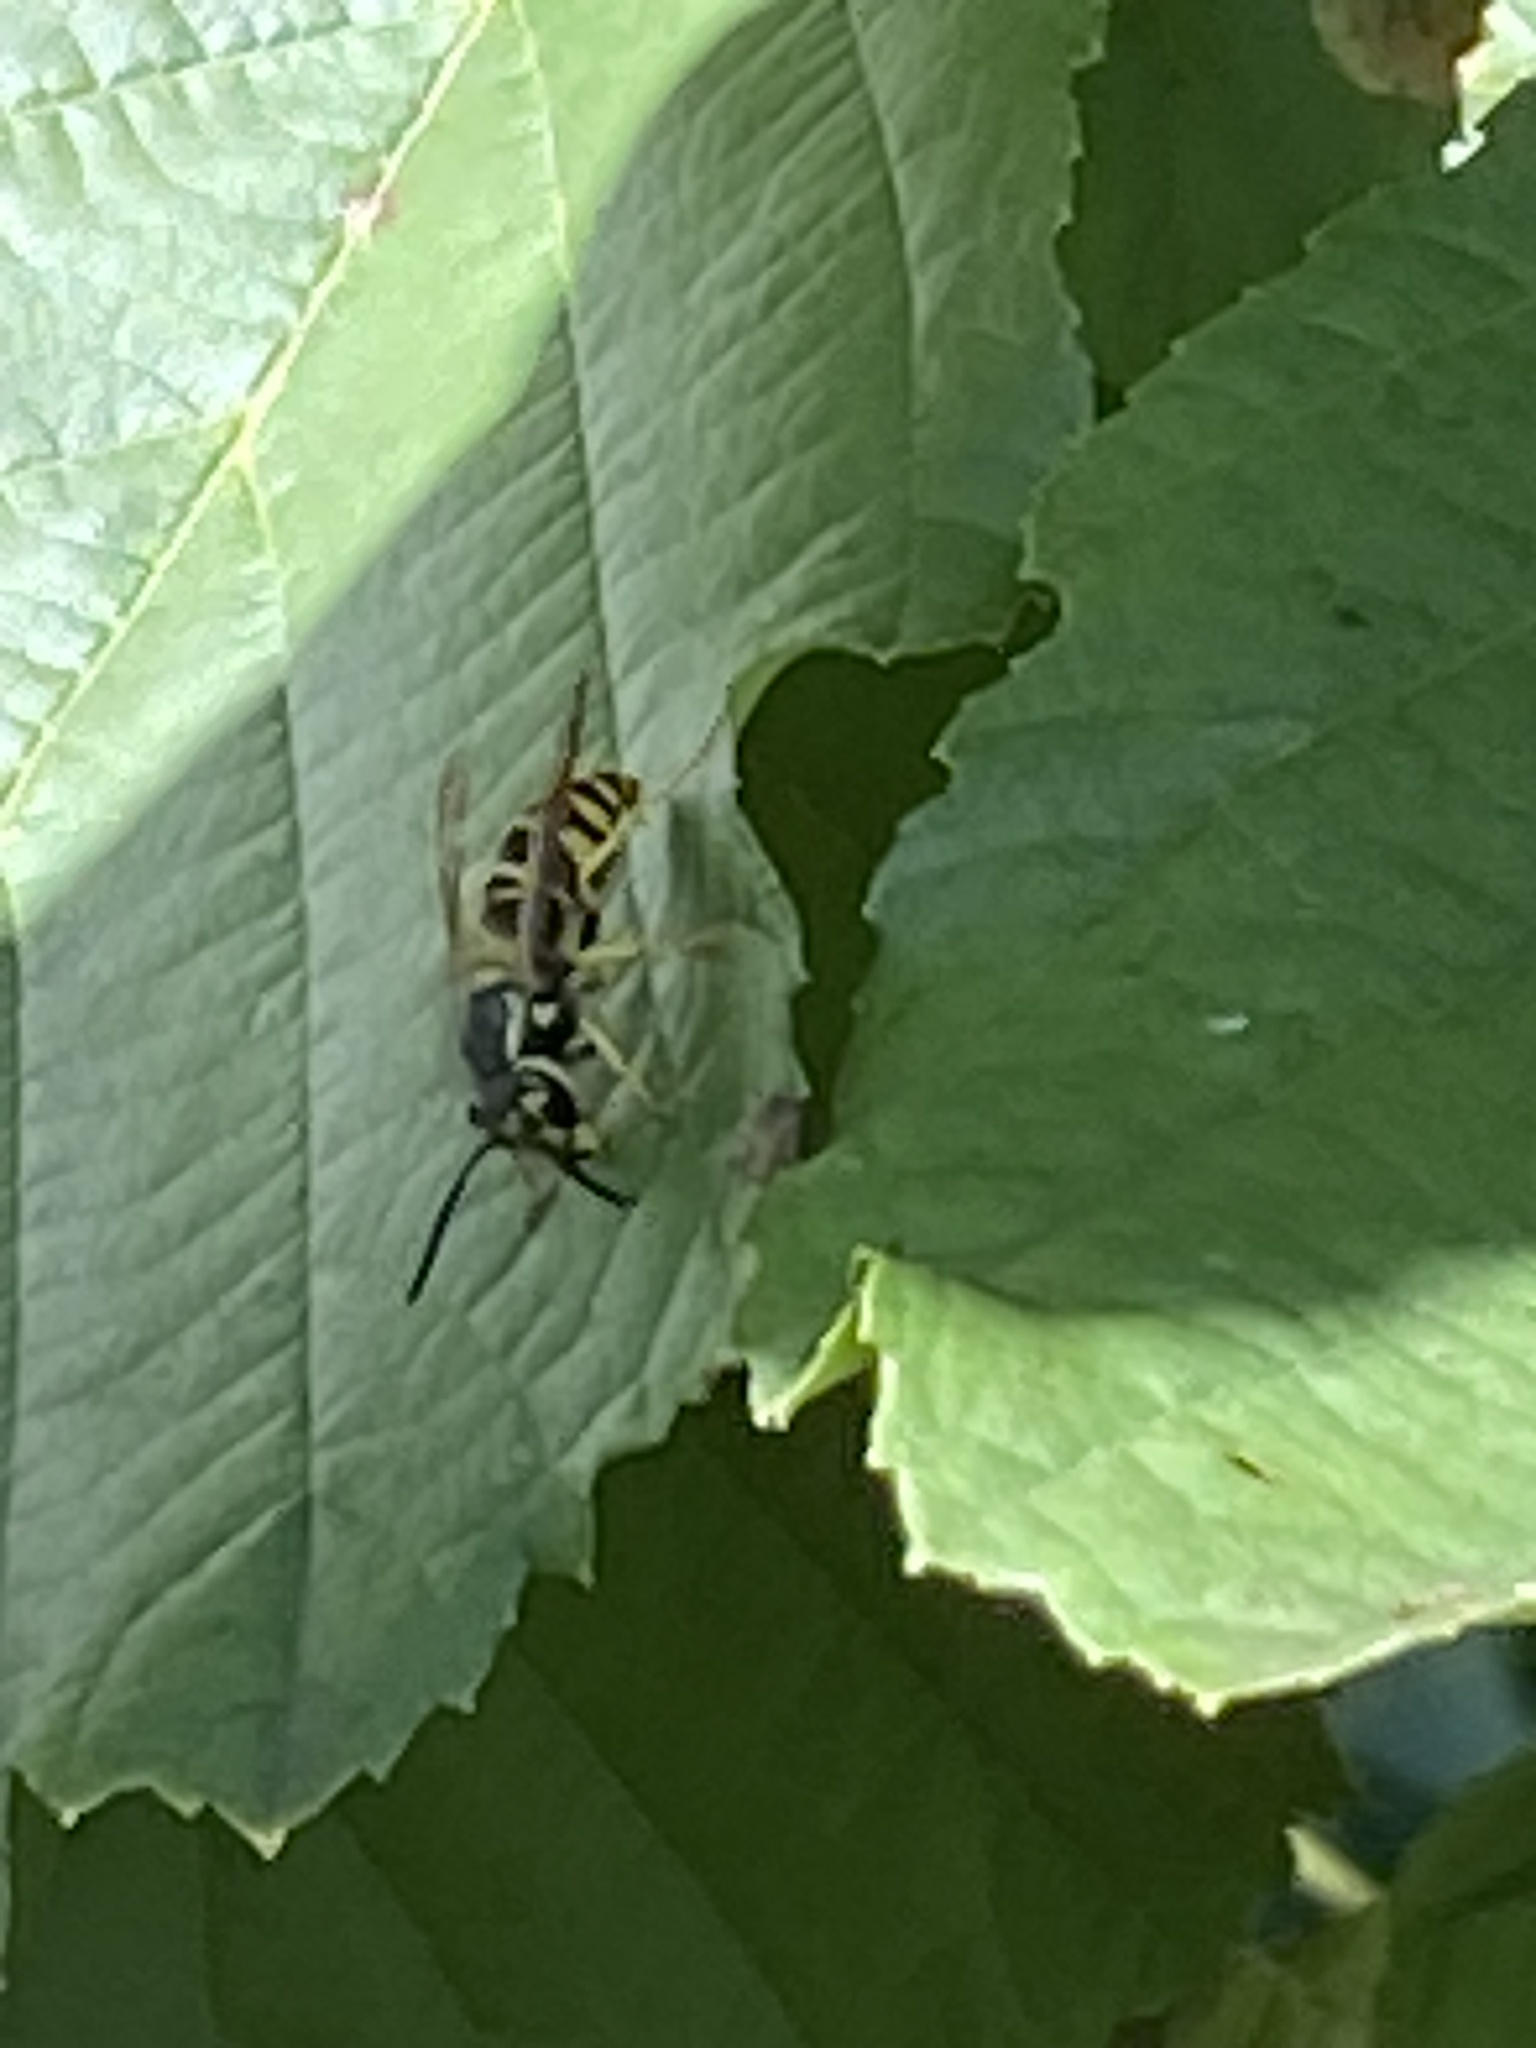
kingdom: Animalia
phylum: Arthropoda
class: Insecta
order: Hymenoptera
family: Vespidae
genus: Vespula
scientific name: Vespula maculifrons
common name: Eastern yellowjacket
